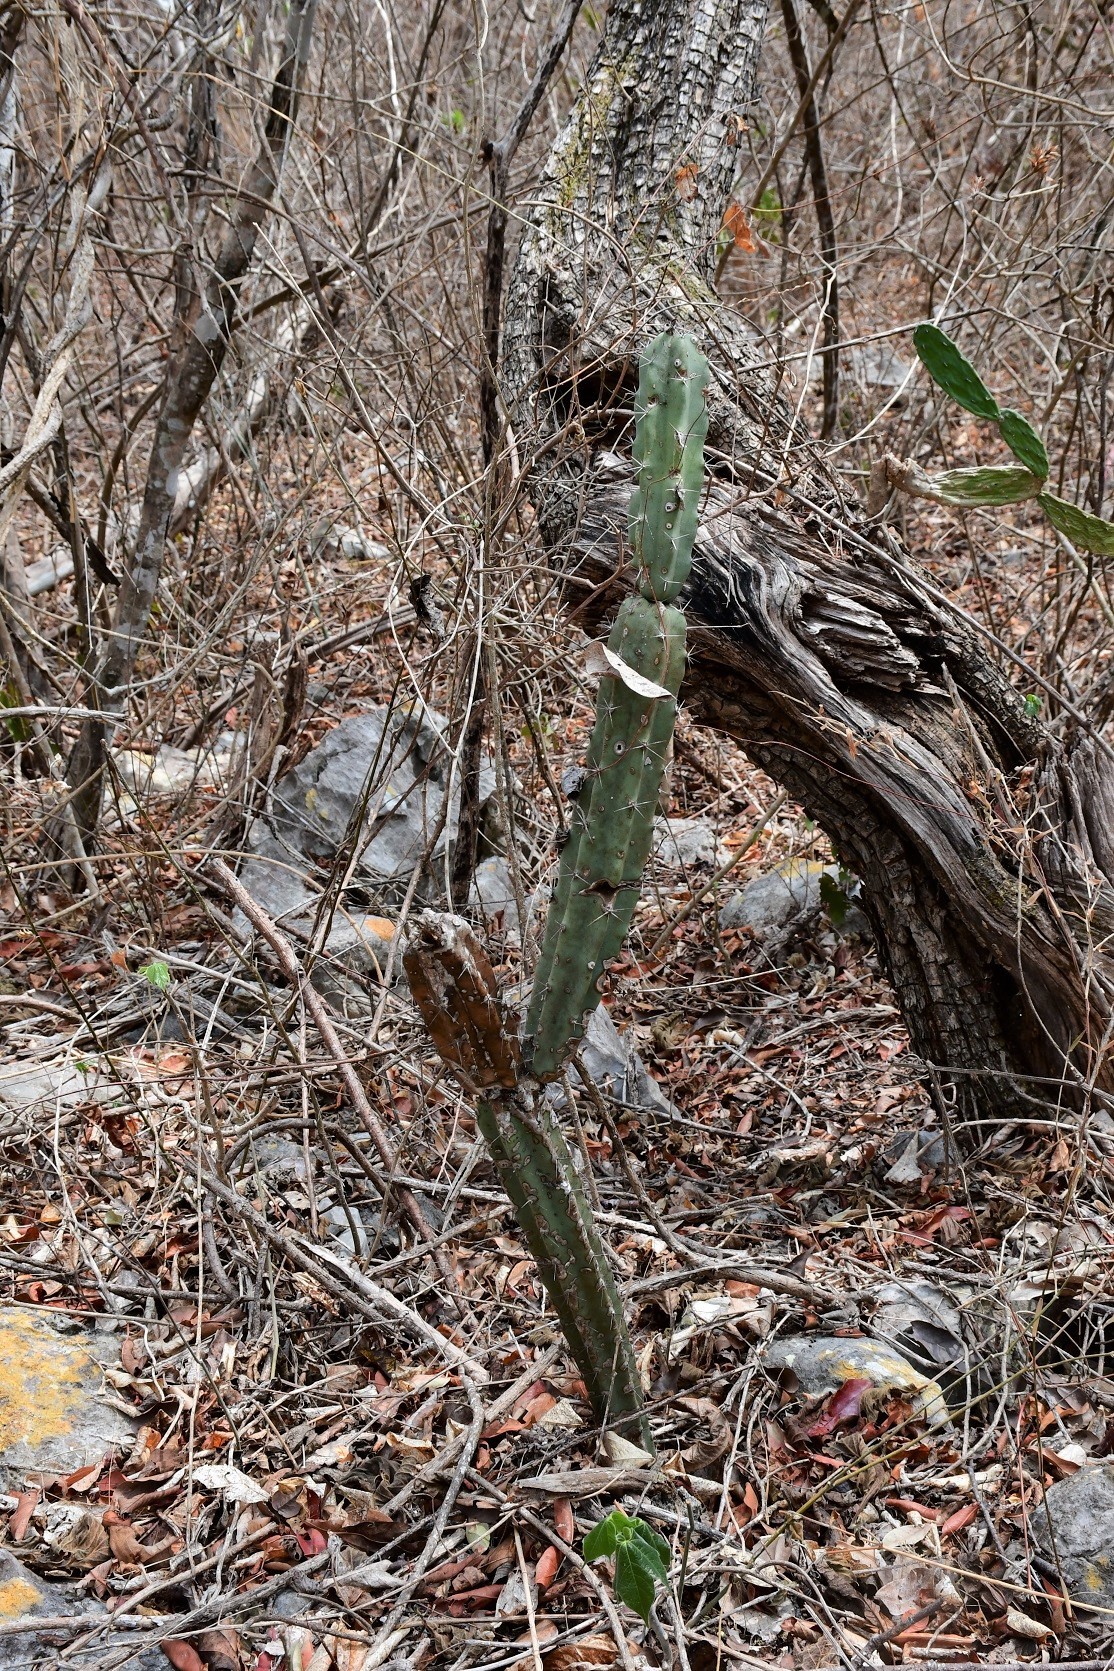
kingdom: Plantae
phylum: Tracheophyta
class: Magnoliopsida
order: Caryophyllales
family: Cactaceae
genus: Acanthocereus
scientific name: Acanthocereus chiapensis
